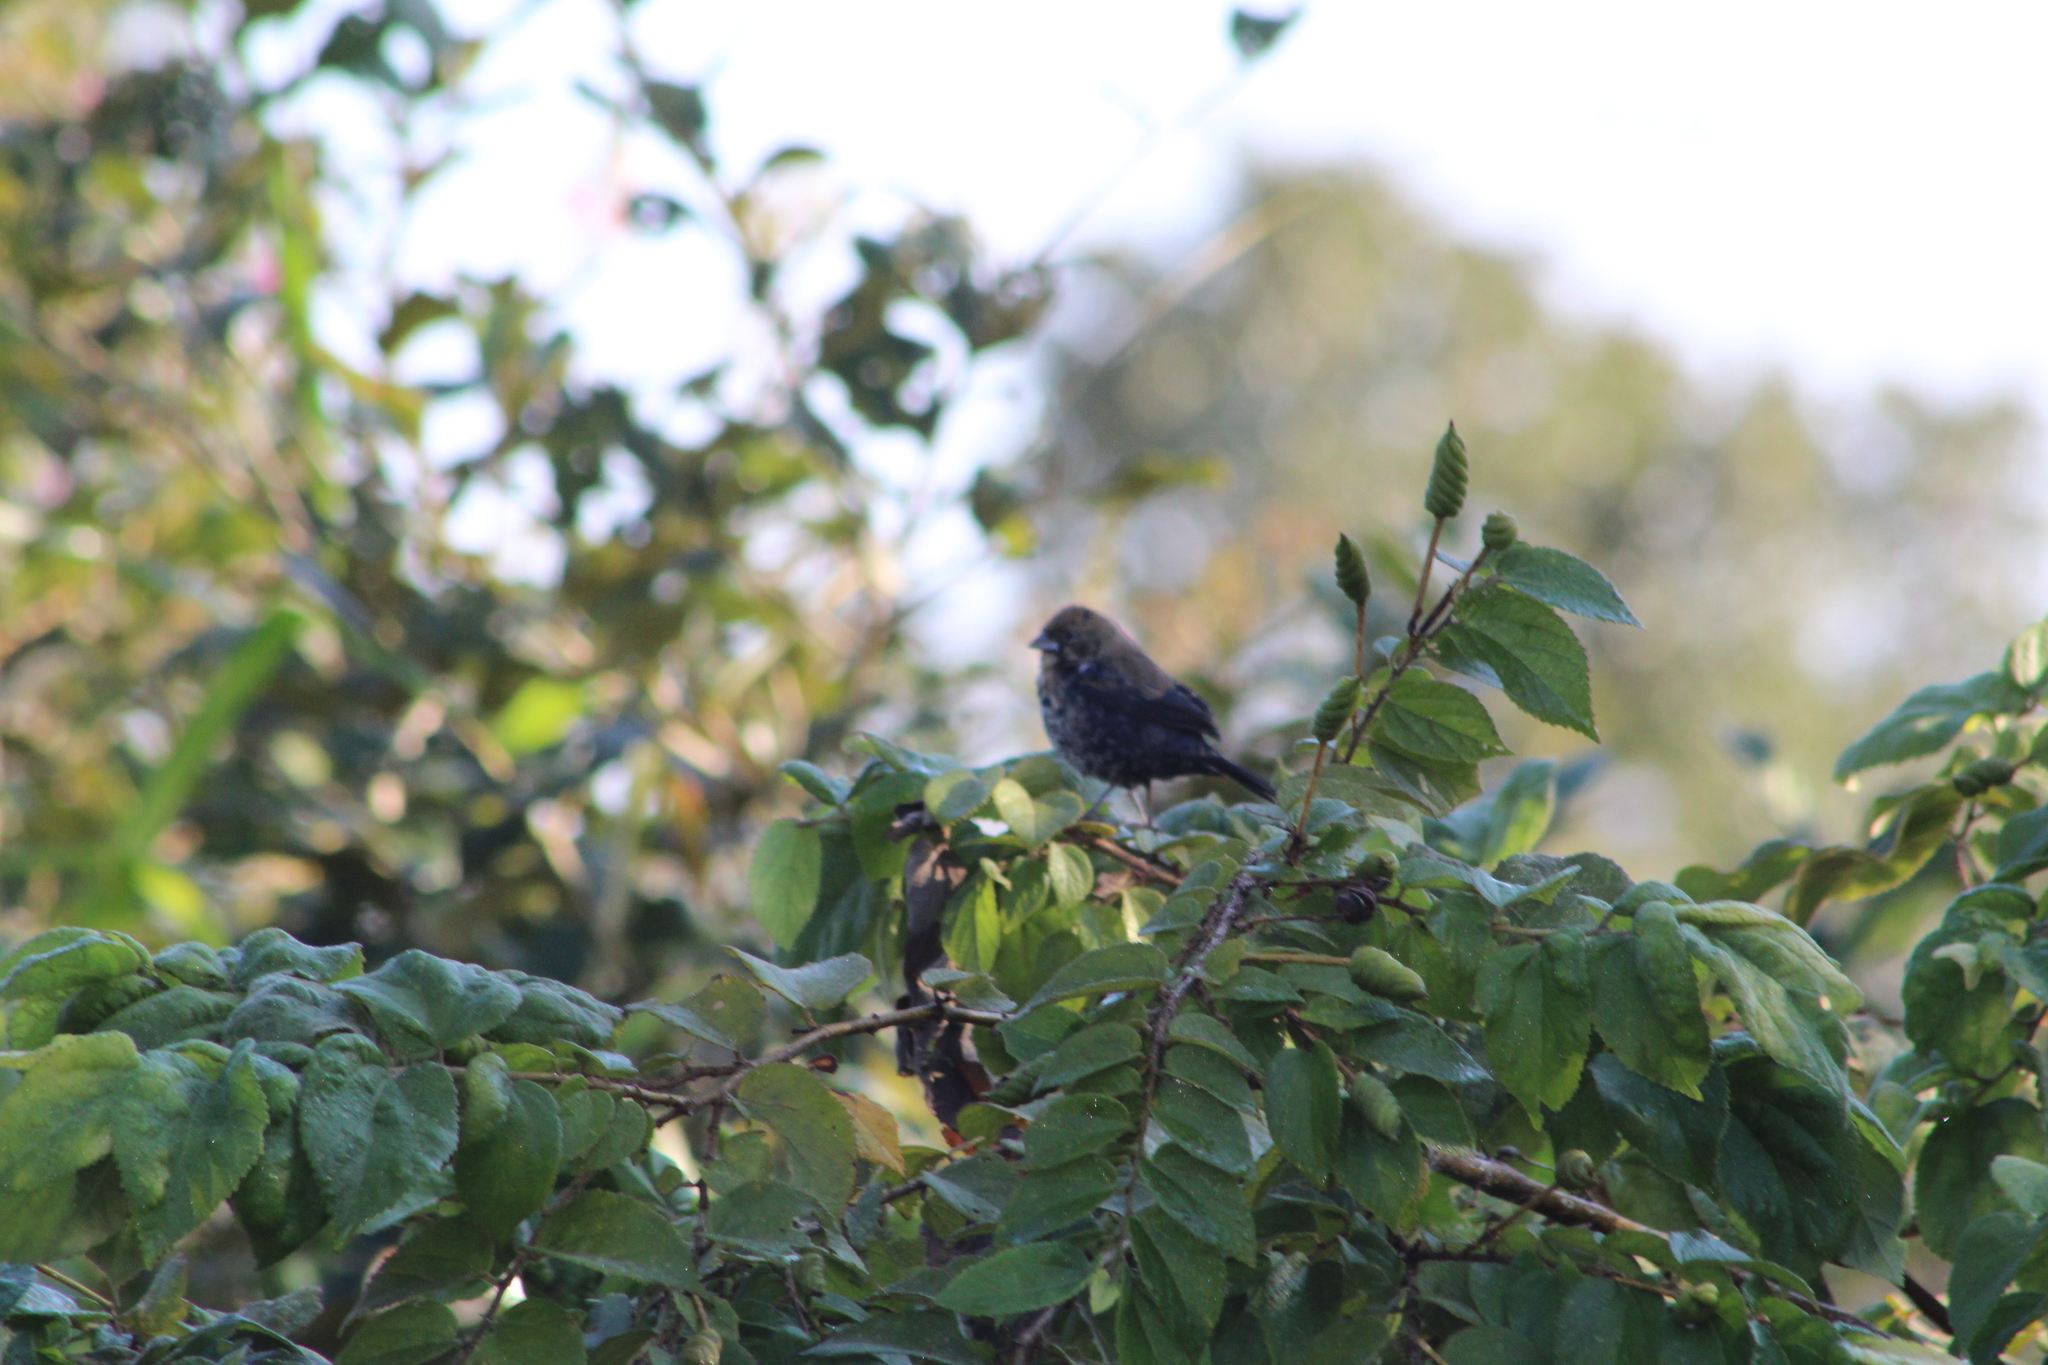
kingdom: Animalia
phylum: Chordata
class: Aves
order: Passeriformes
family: Thraupidae
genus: Volatinia
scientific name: Volatinia jacarina
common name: Blue-black grassquit
